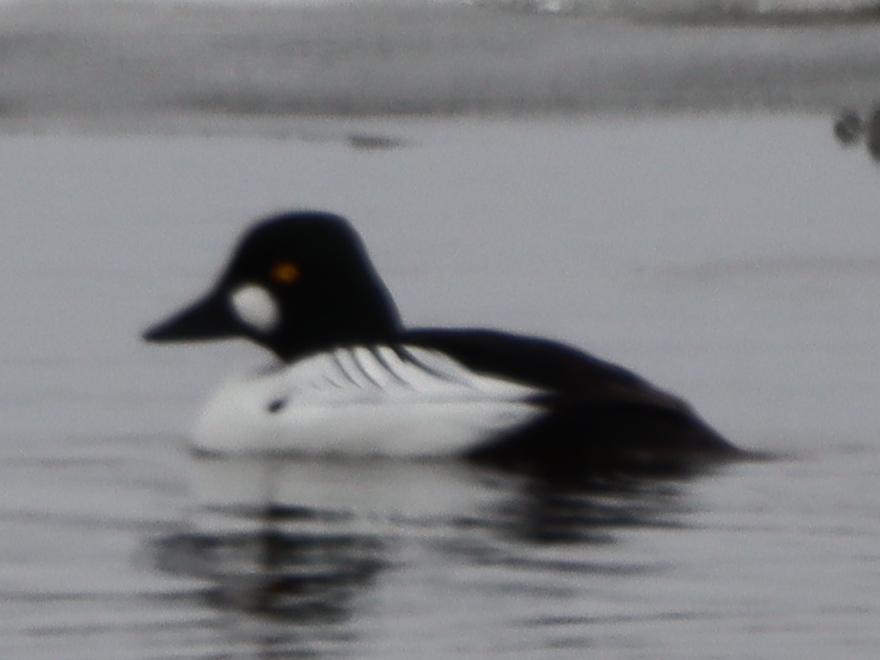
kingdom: Animalia
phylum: Chordata
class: Aves
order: Anseriformes
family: Anatidae
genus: Bucephala
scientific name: Bucephala clangula
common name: Common goldeneye
